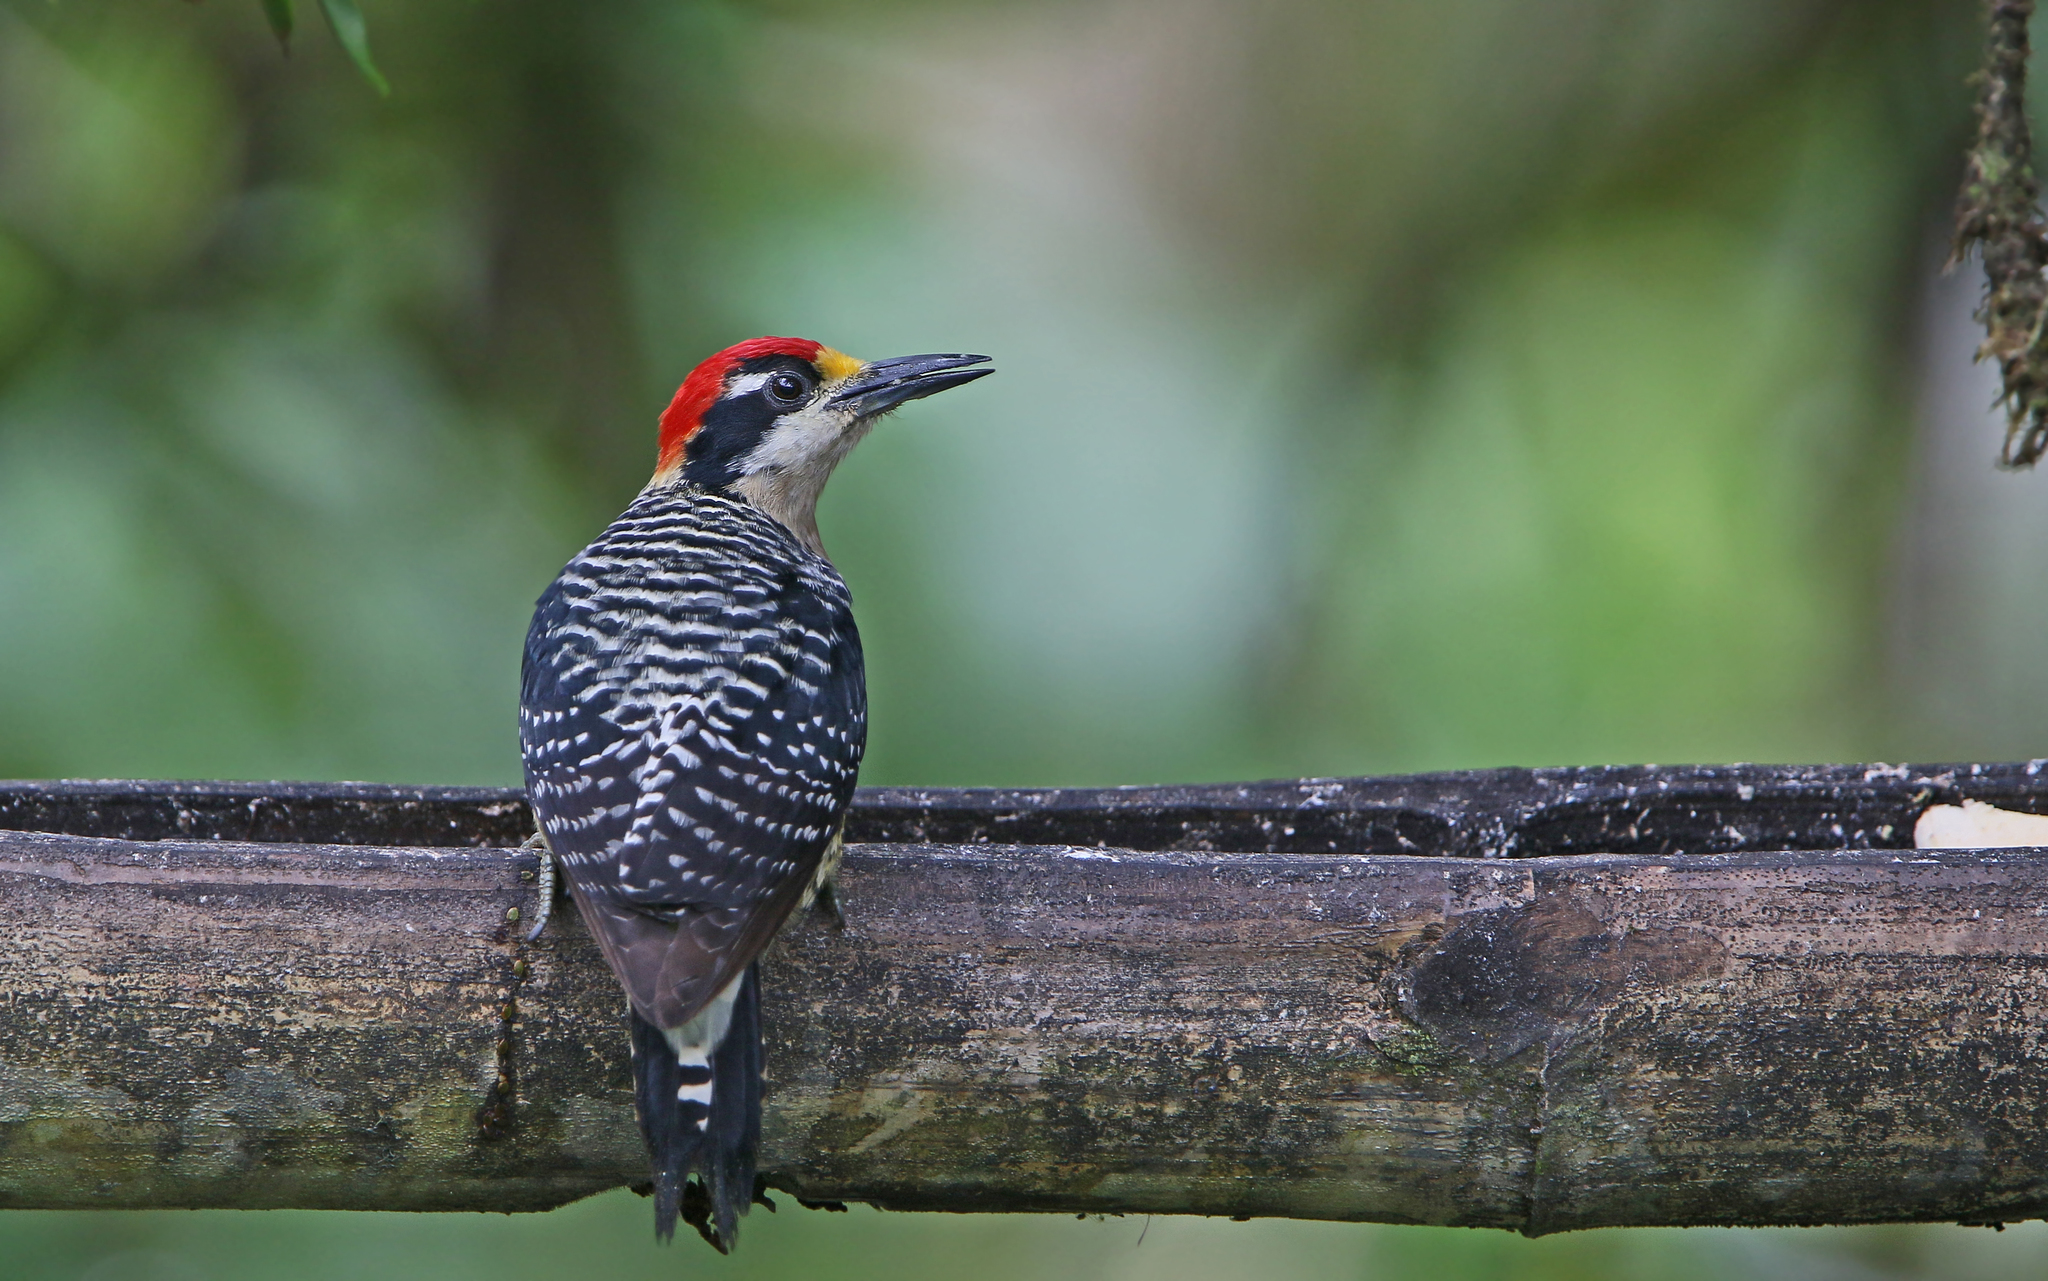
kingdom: Animalia
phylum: Chordata
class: Aves
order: Piciformes
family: Picidae
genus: Melanerpes
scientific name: Melanerpes pucherani
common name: Black-cheeked woodpecker
